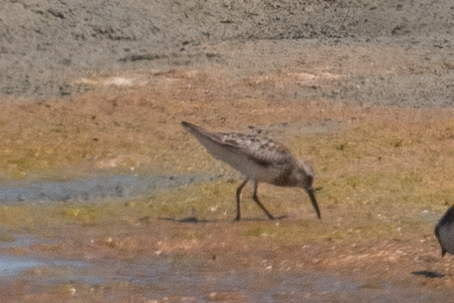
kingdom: Animalia
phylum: Chordata
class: Aves
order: Charadriiformes
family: Scolopacidae
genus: Calidris
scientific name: Calidris alpina
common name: Dunlin
